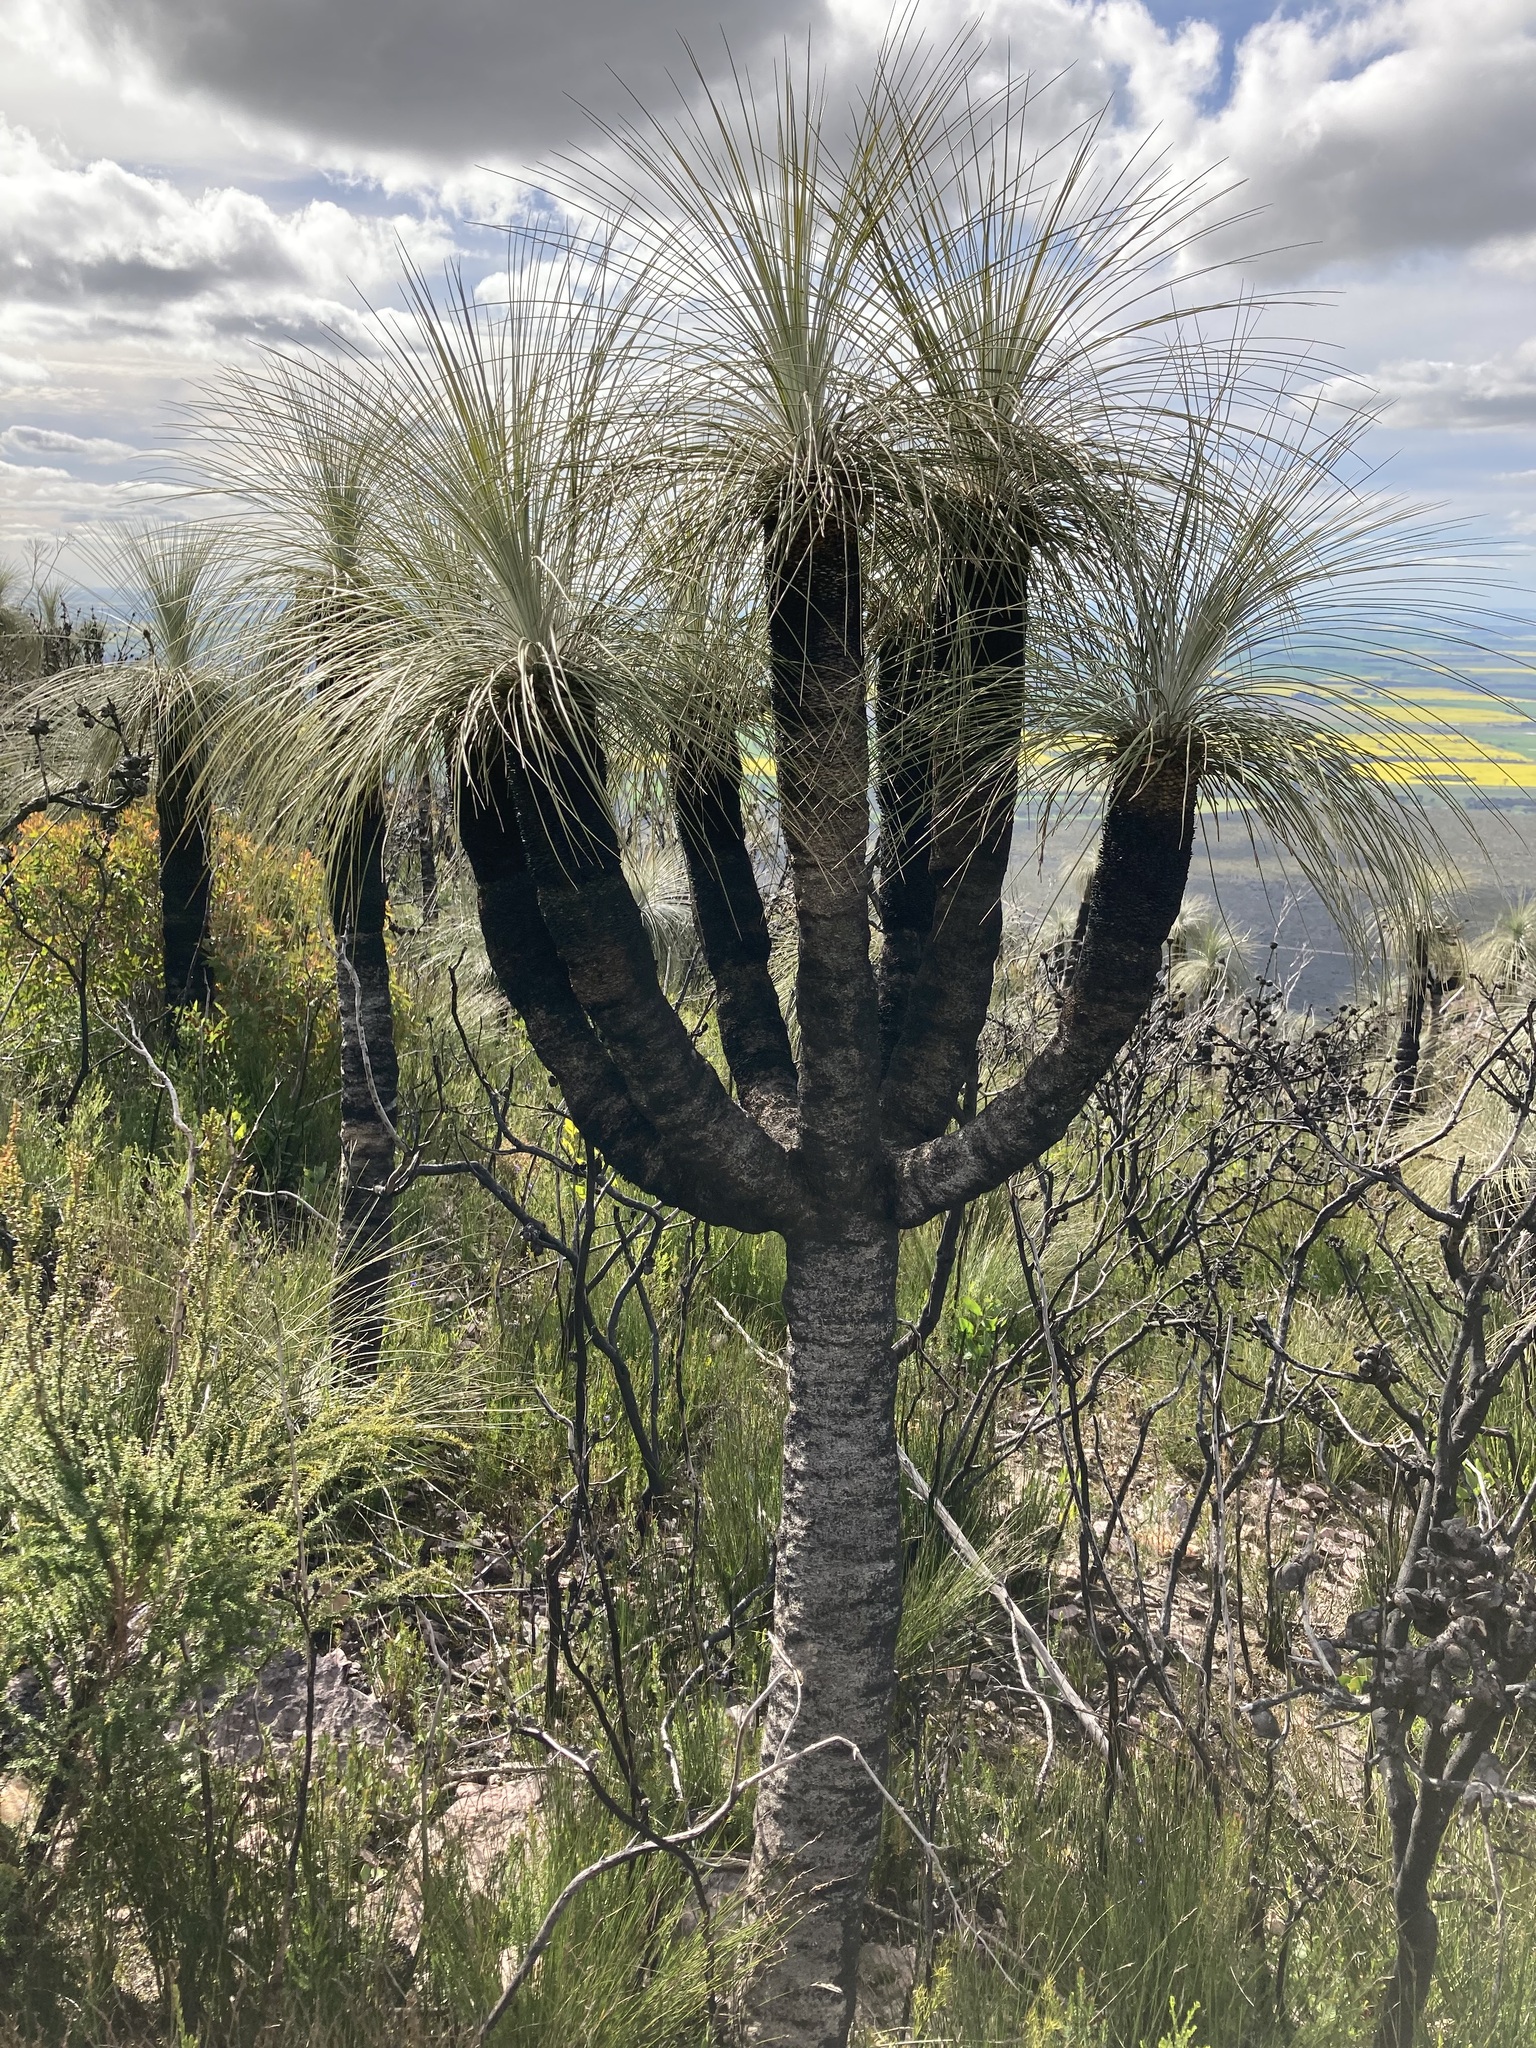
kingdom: Plantae
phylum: Tracheophyta
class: Liliopsida
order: Arecales
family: Dasypogonaceae
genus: Kingia
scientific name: Kingia australis
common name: Black gin
